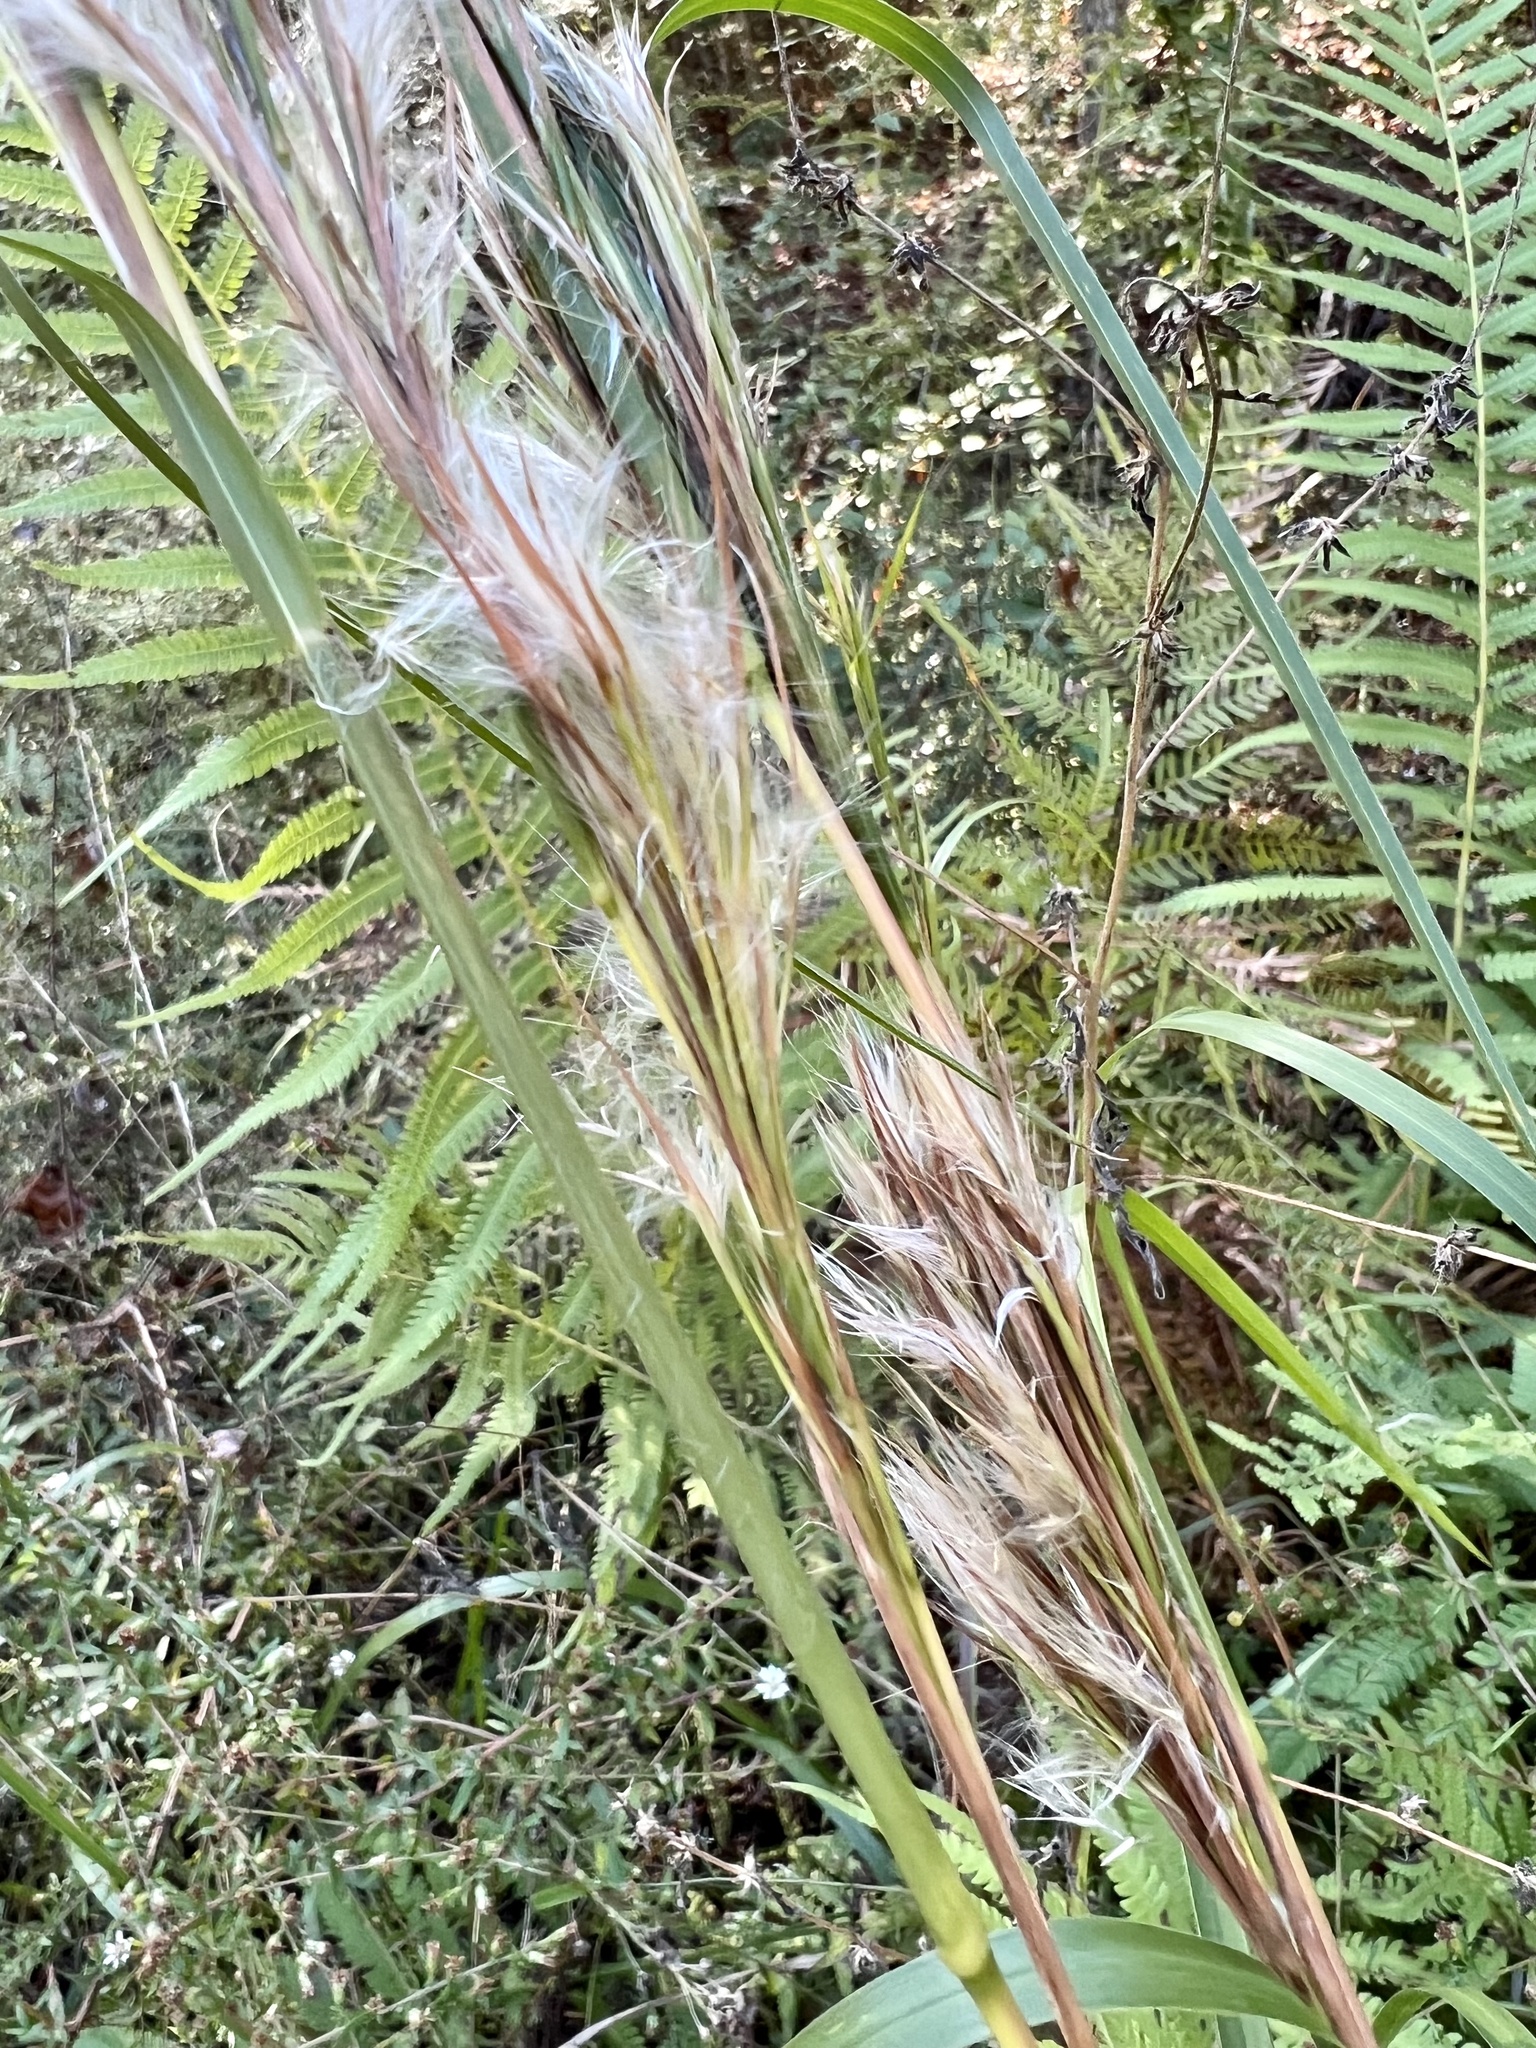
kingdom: Plantae
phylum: Tracheophyta
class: Liliopsida
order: Poales
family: Poaceae
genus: Andropogon
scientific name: Andropogon tenuispatheus
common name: Bushy bluestem
